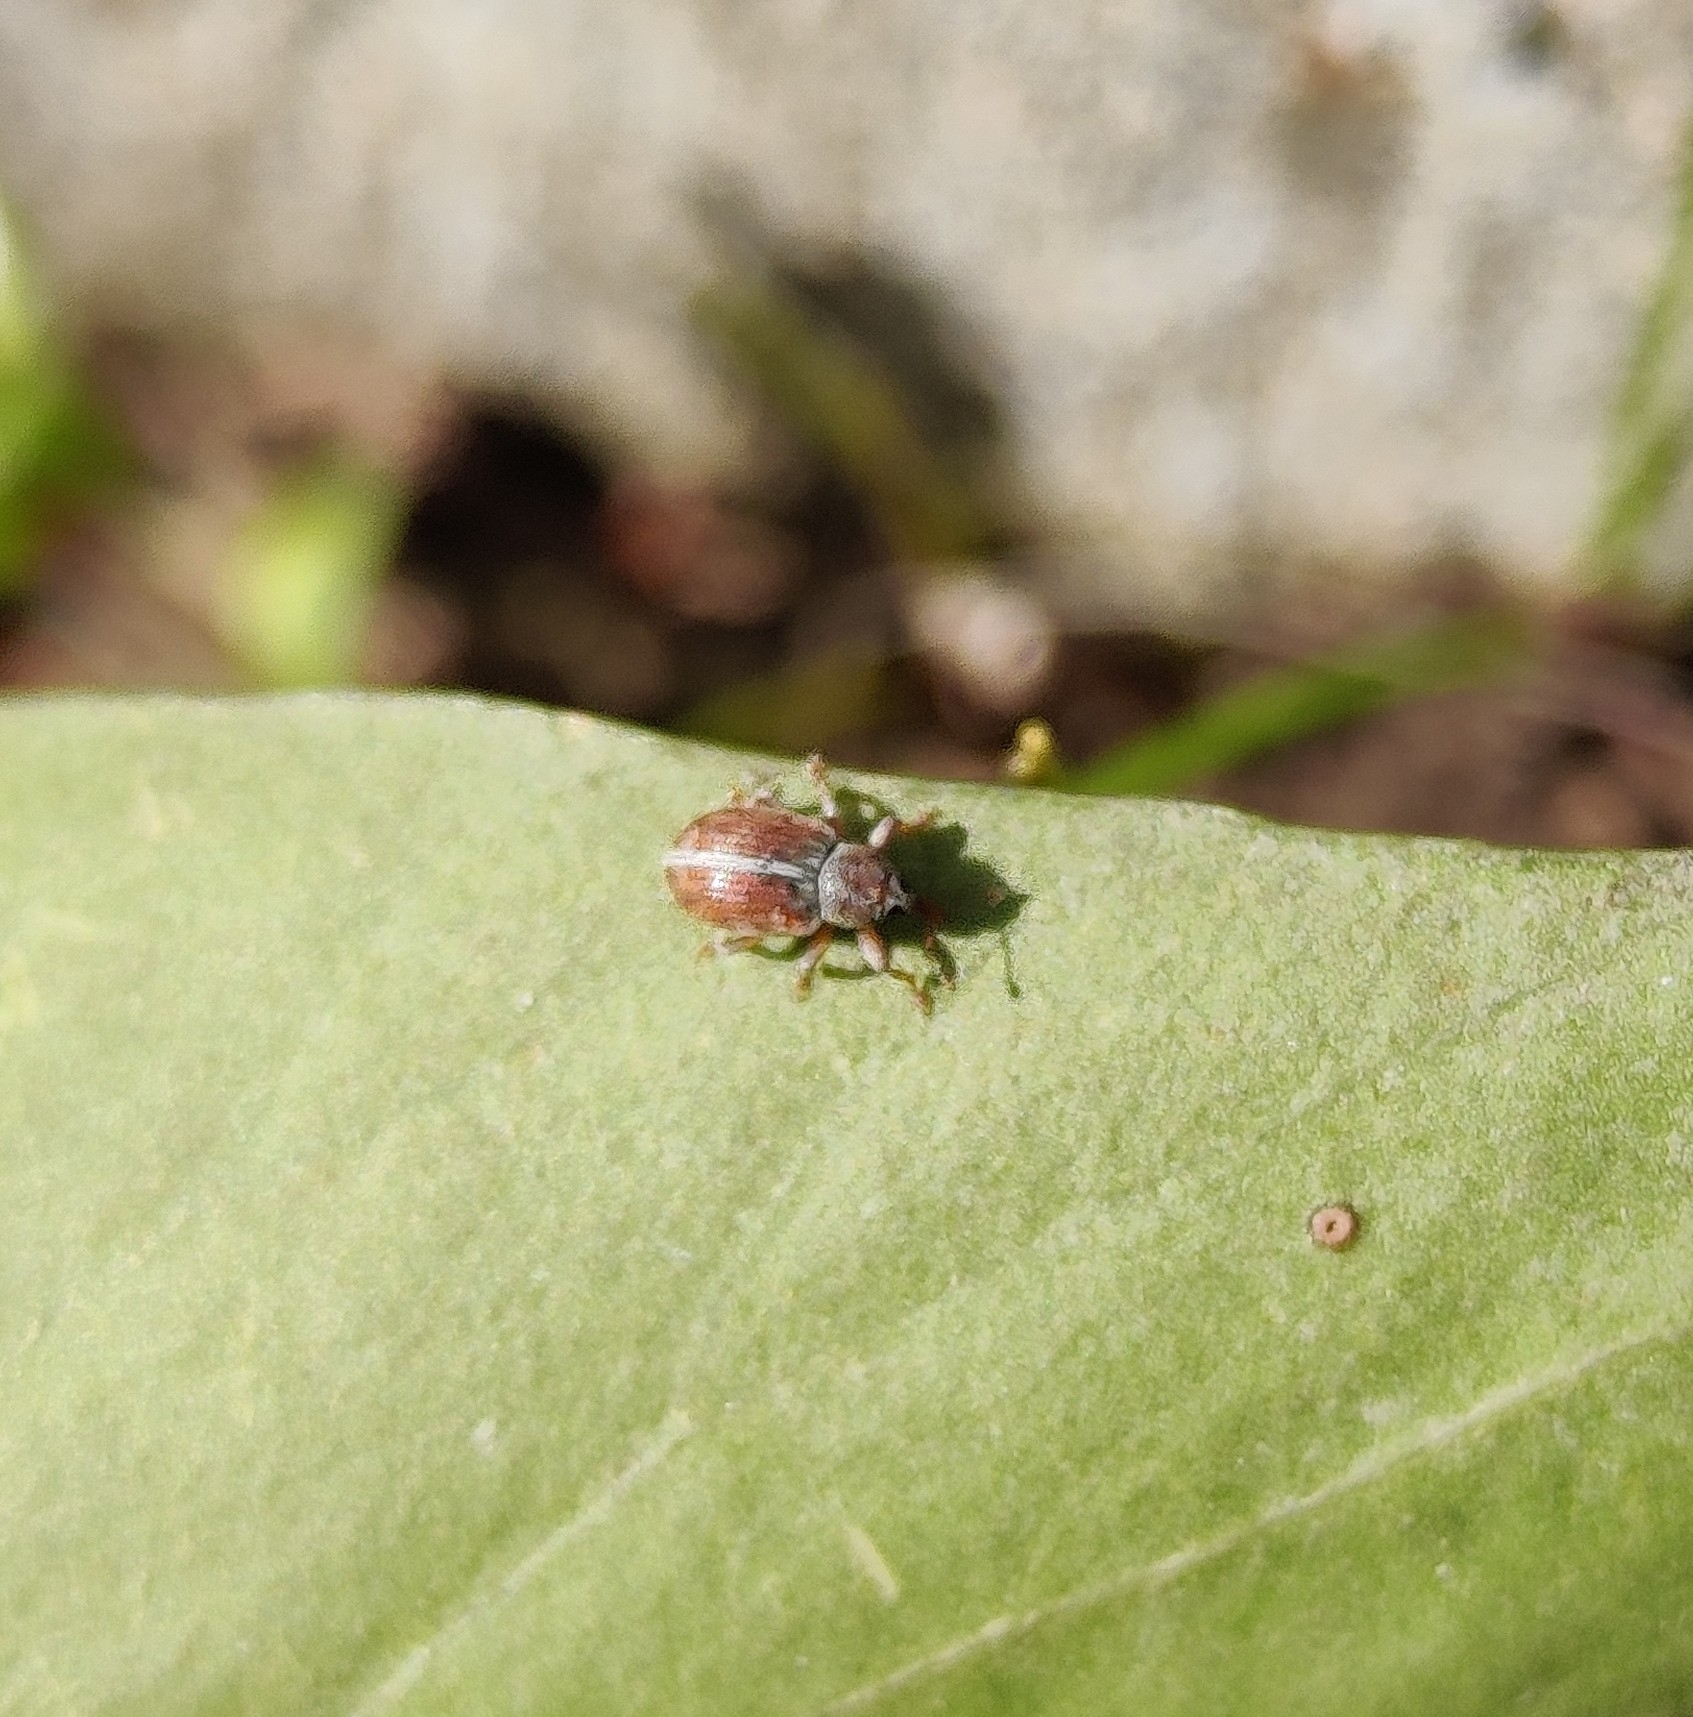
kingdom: Animalia
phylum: Arthropoda
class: Insecta
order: Coleoptera
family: Curculionidae
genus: Ellescus
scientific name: Ellescus scanicus
